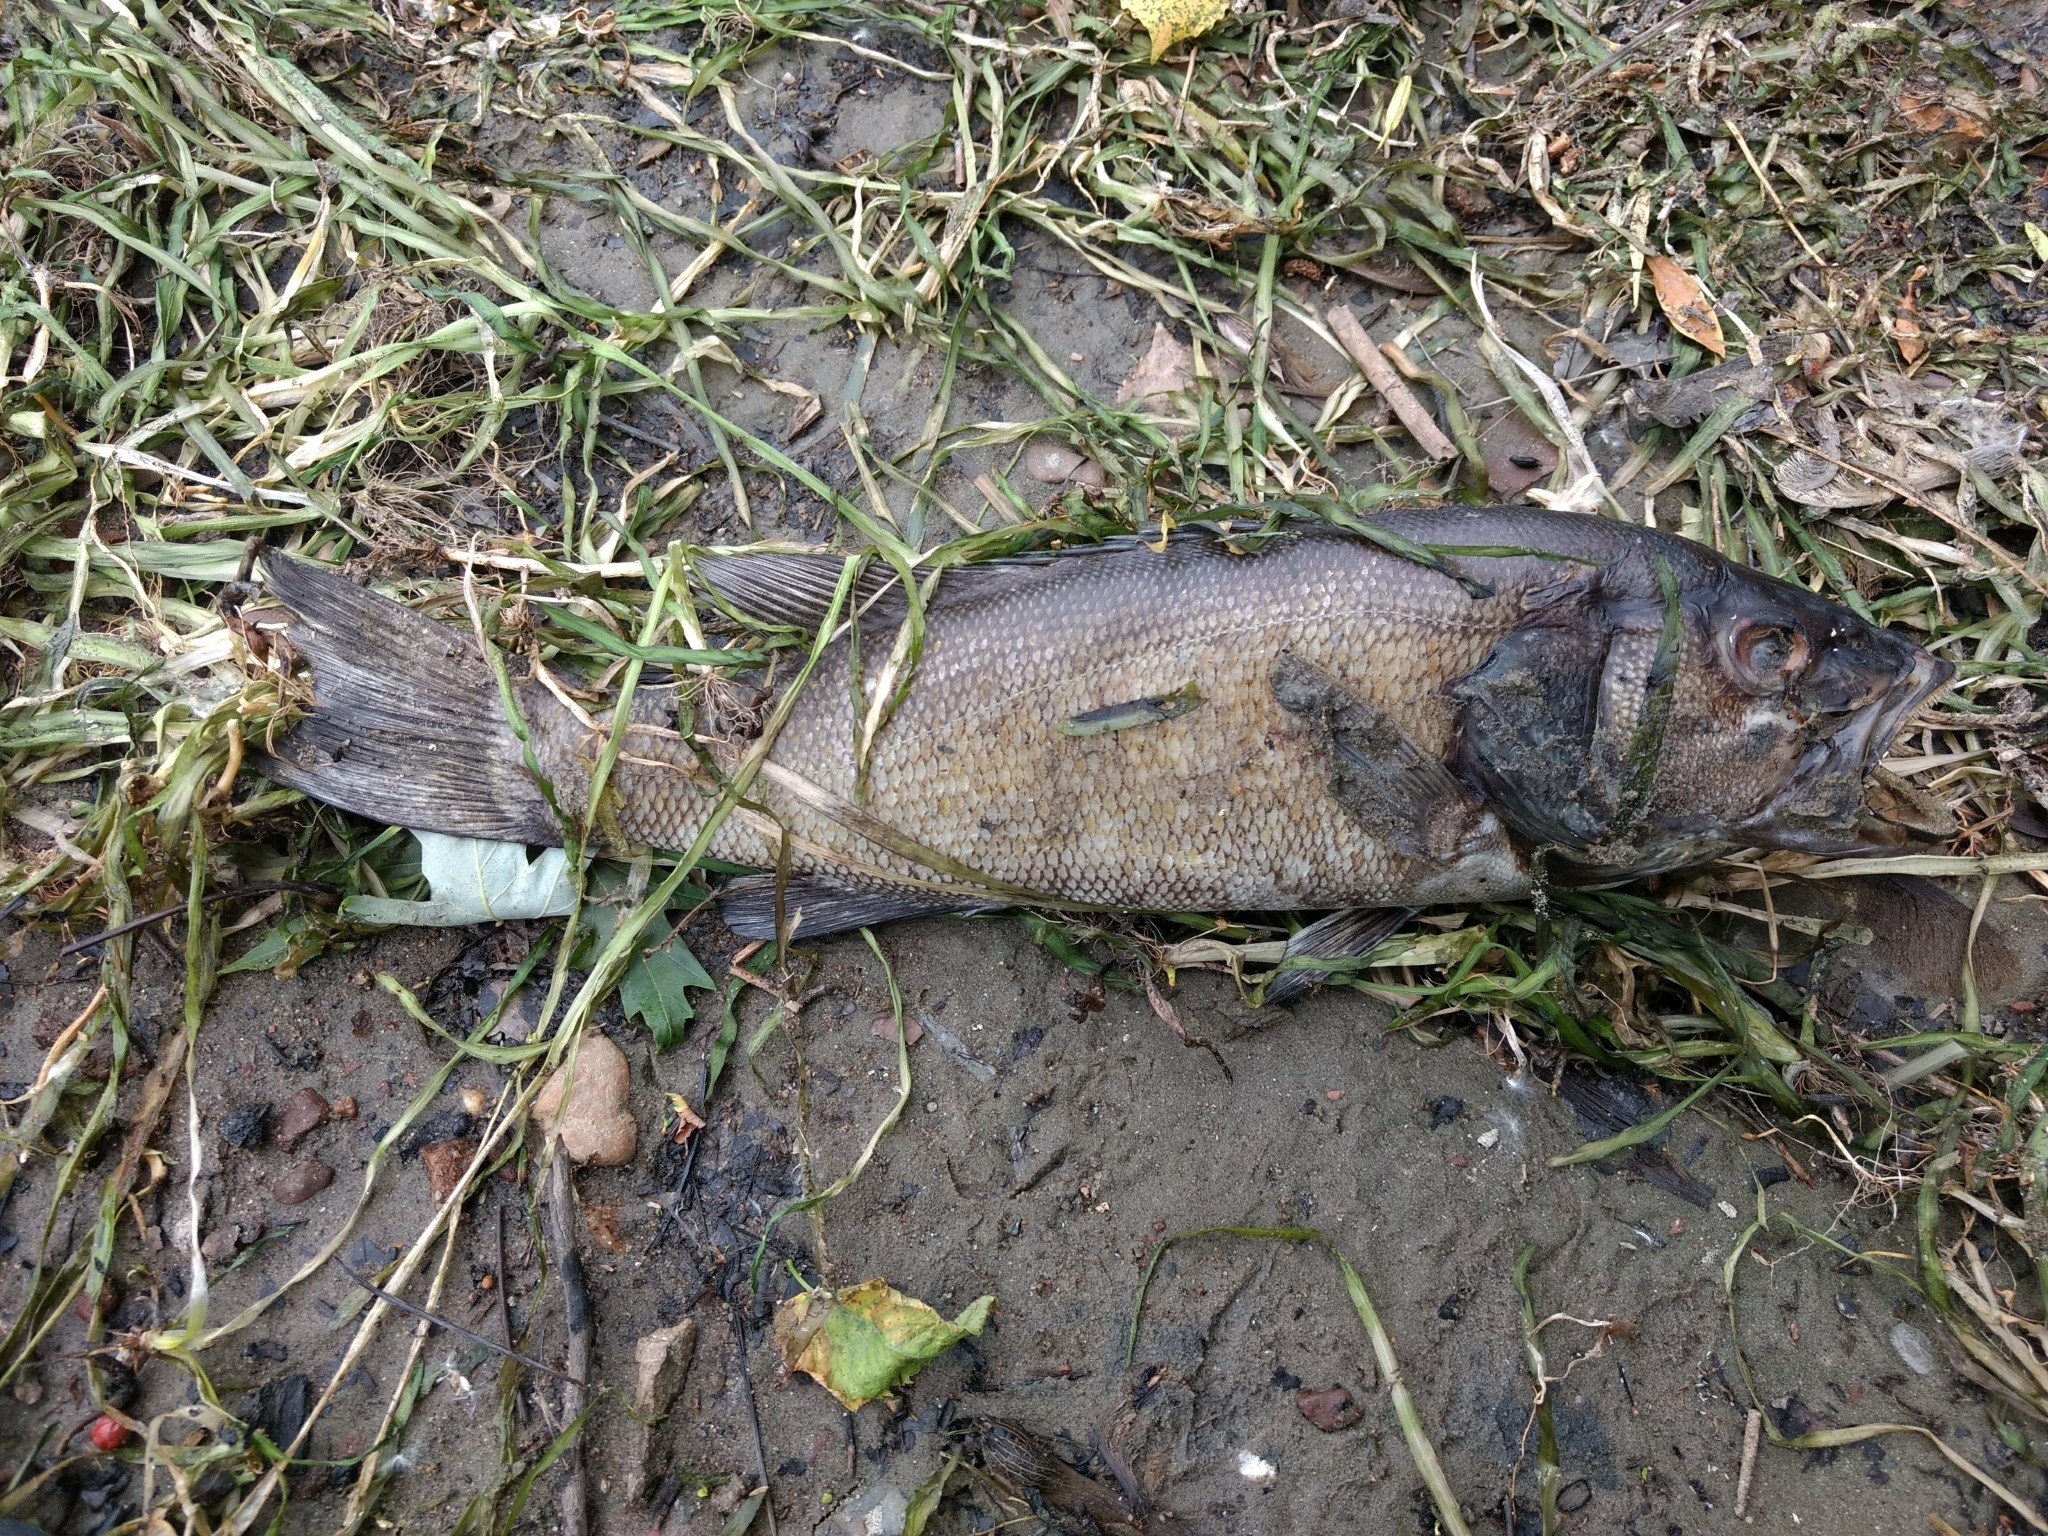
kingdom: Animalia
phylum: Chordata
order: Perciformes
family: Centrarchidae
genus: Micropterus
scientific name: Micropterus dolomieu
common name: Smallmouth bass
